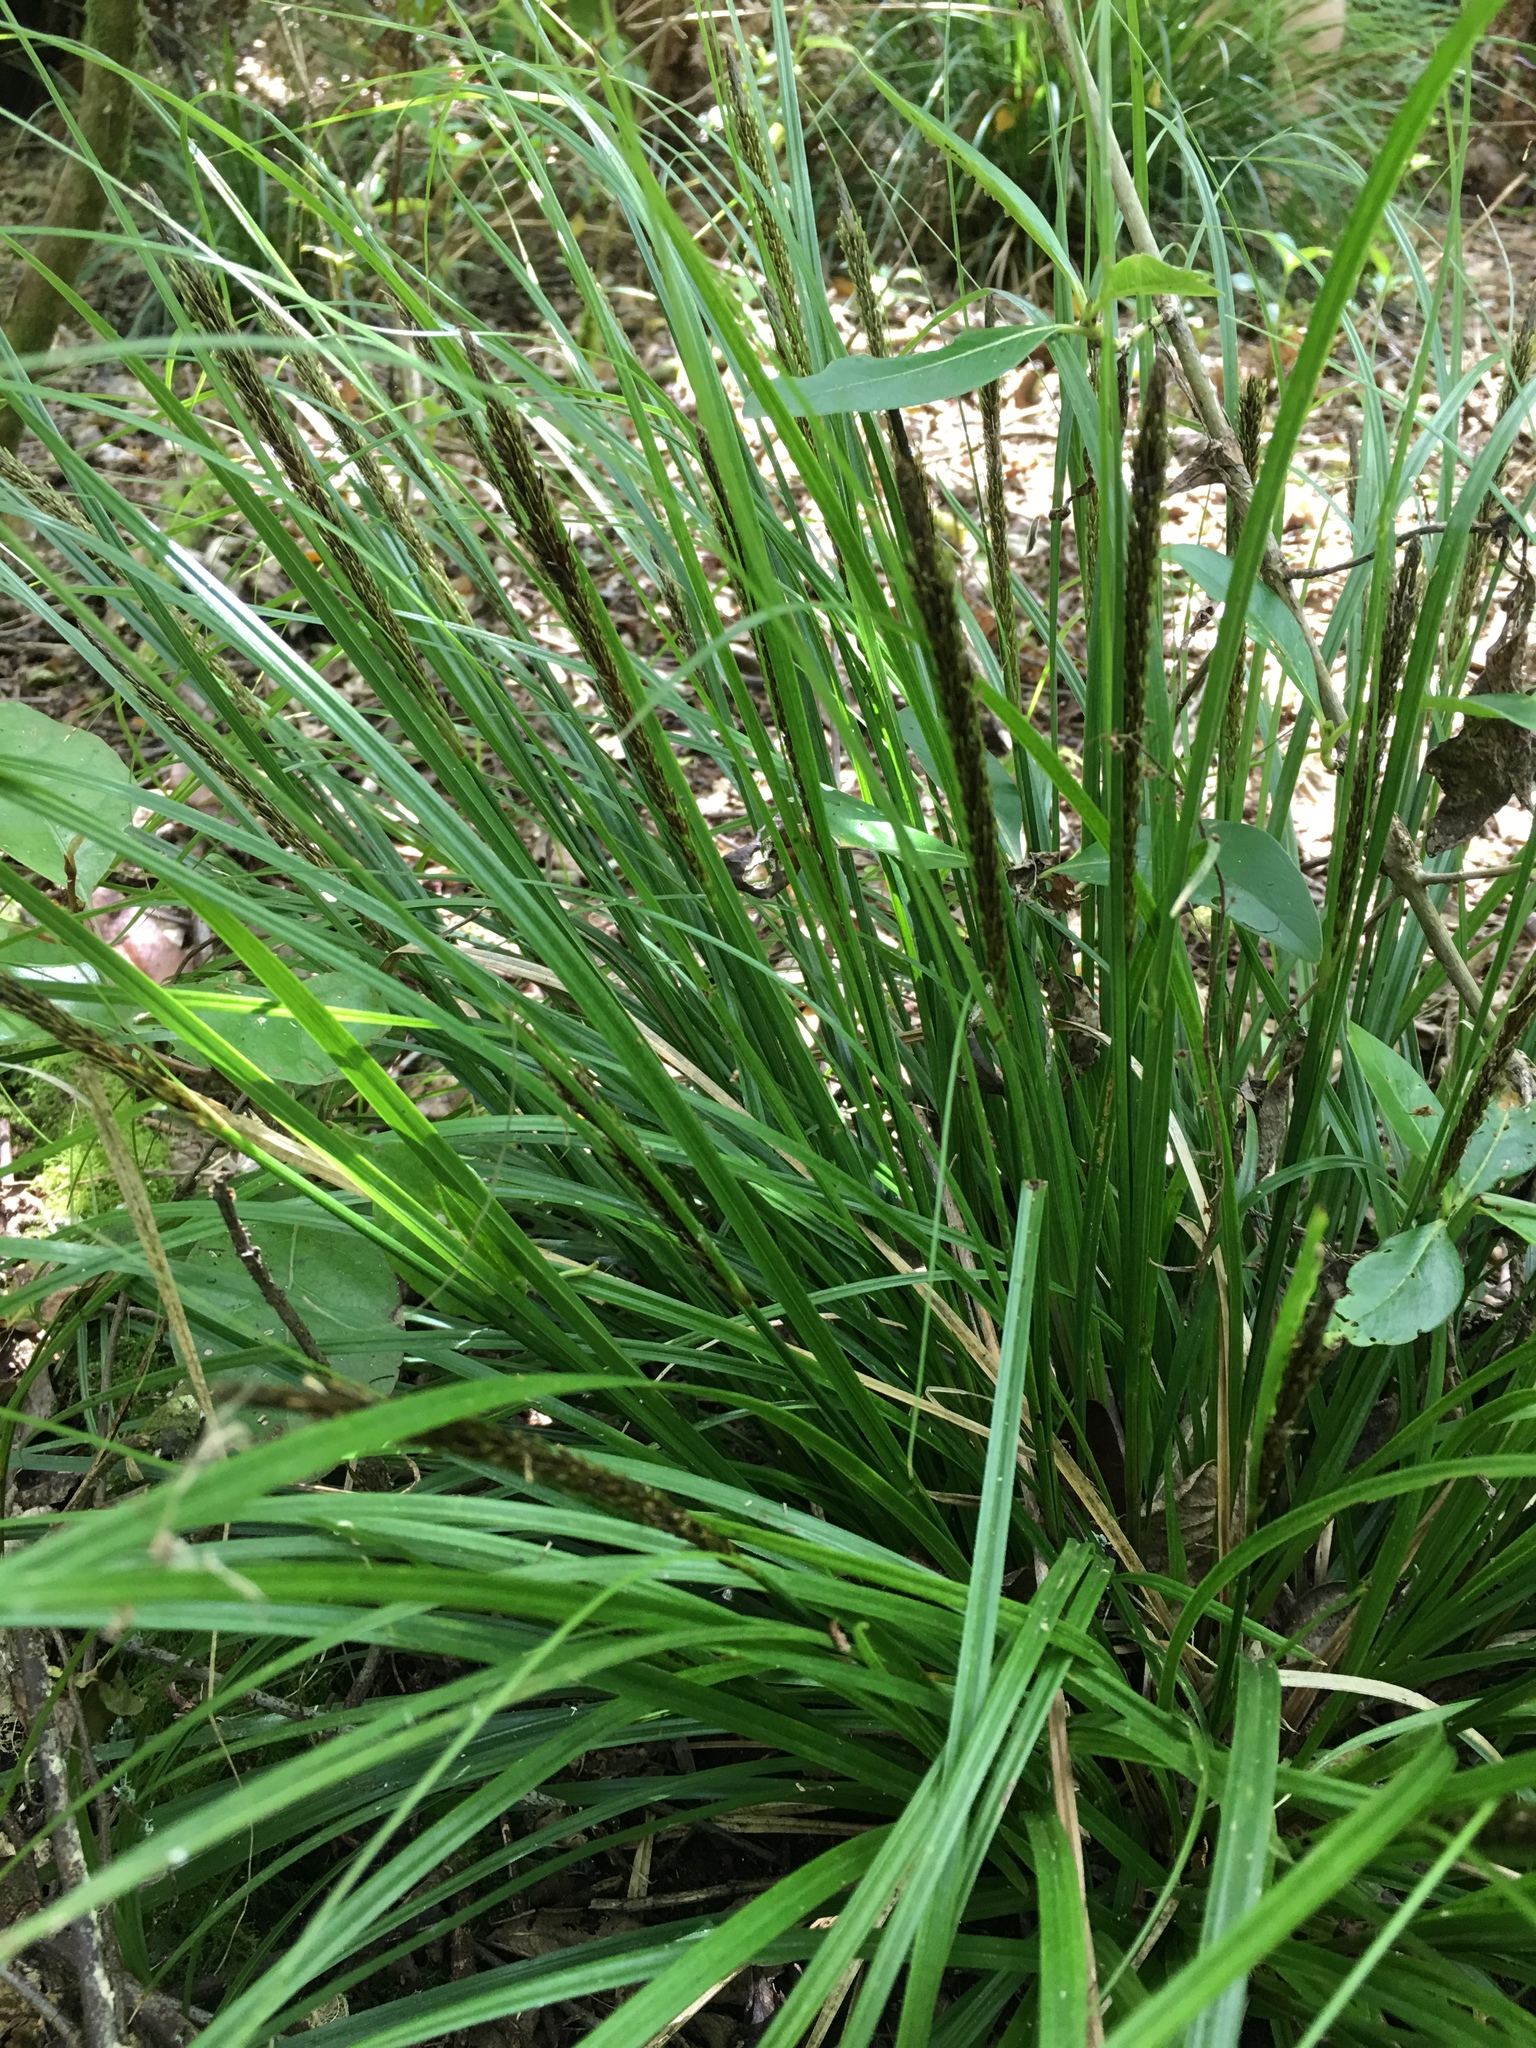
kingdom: Plantae
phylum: Tracheophyta
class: Liliopsida
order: Poales
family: Cyperaceae
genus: Carex
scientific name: Carex uncinata
